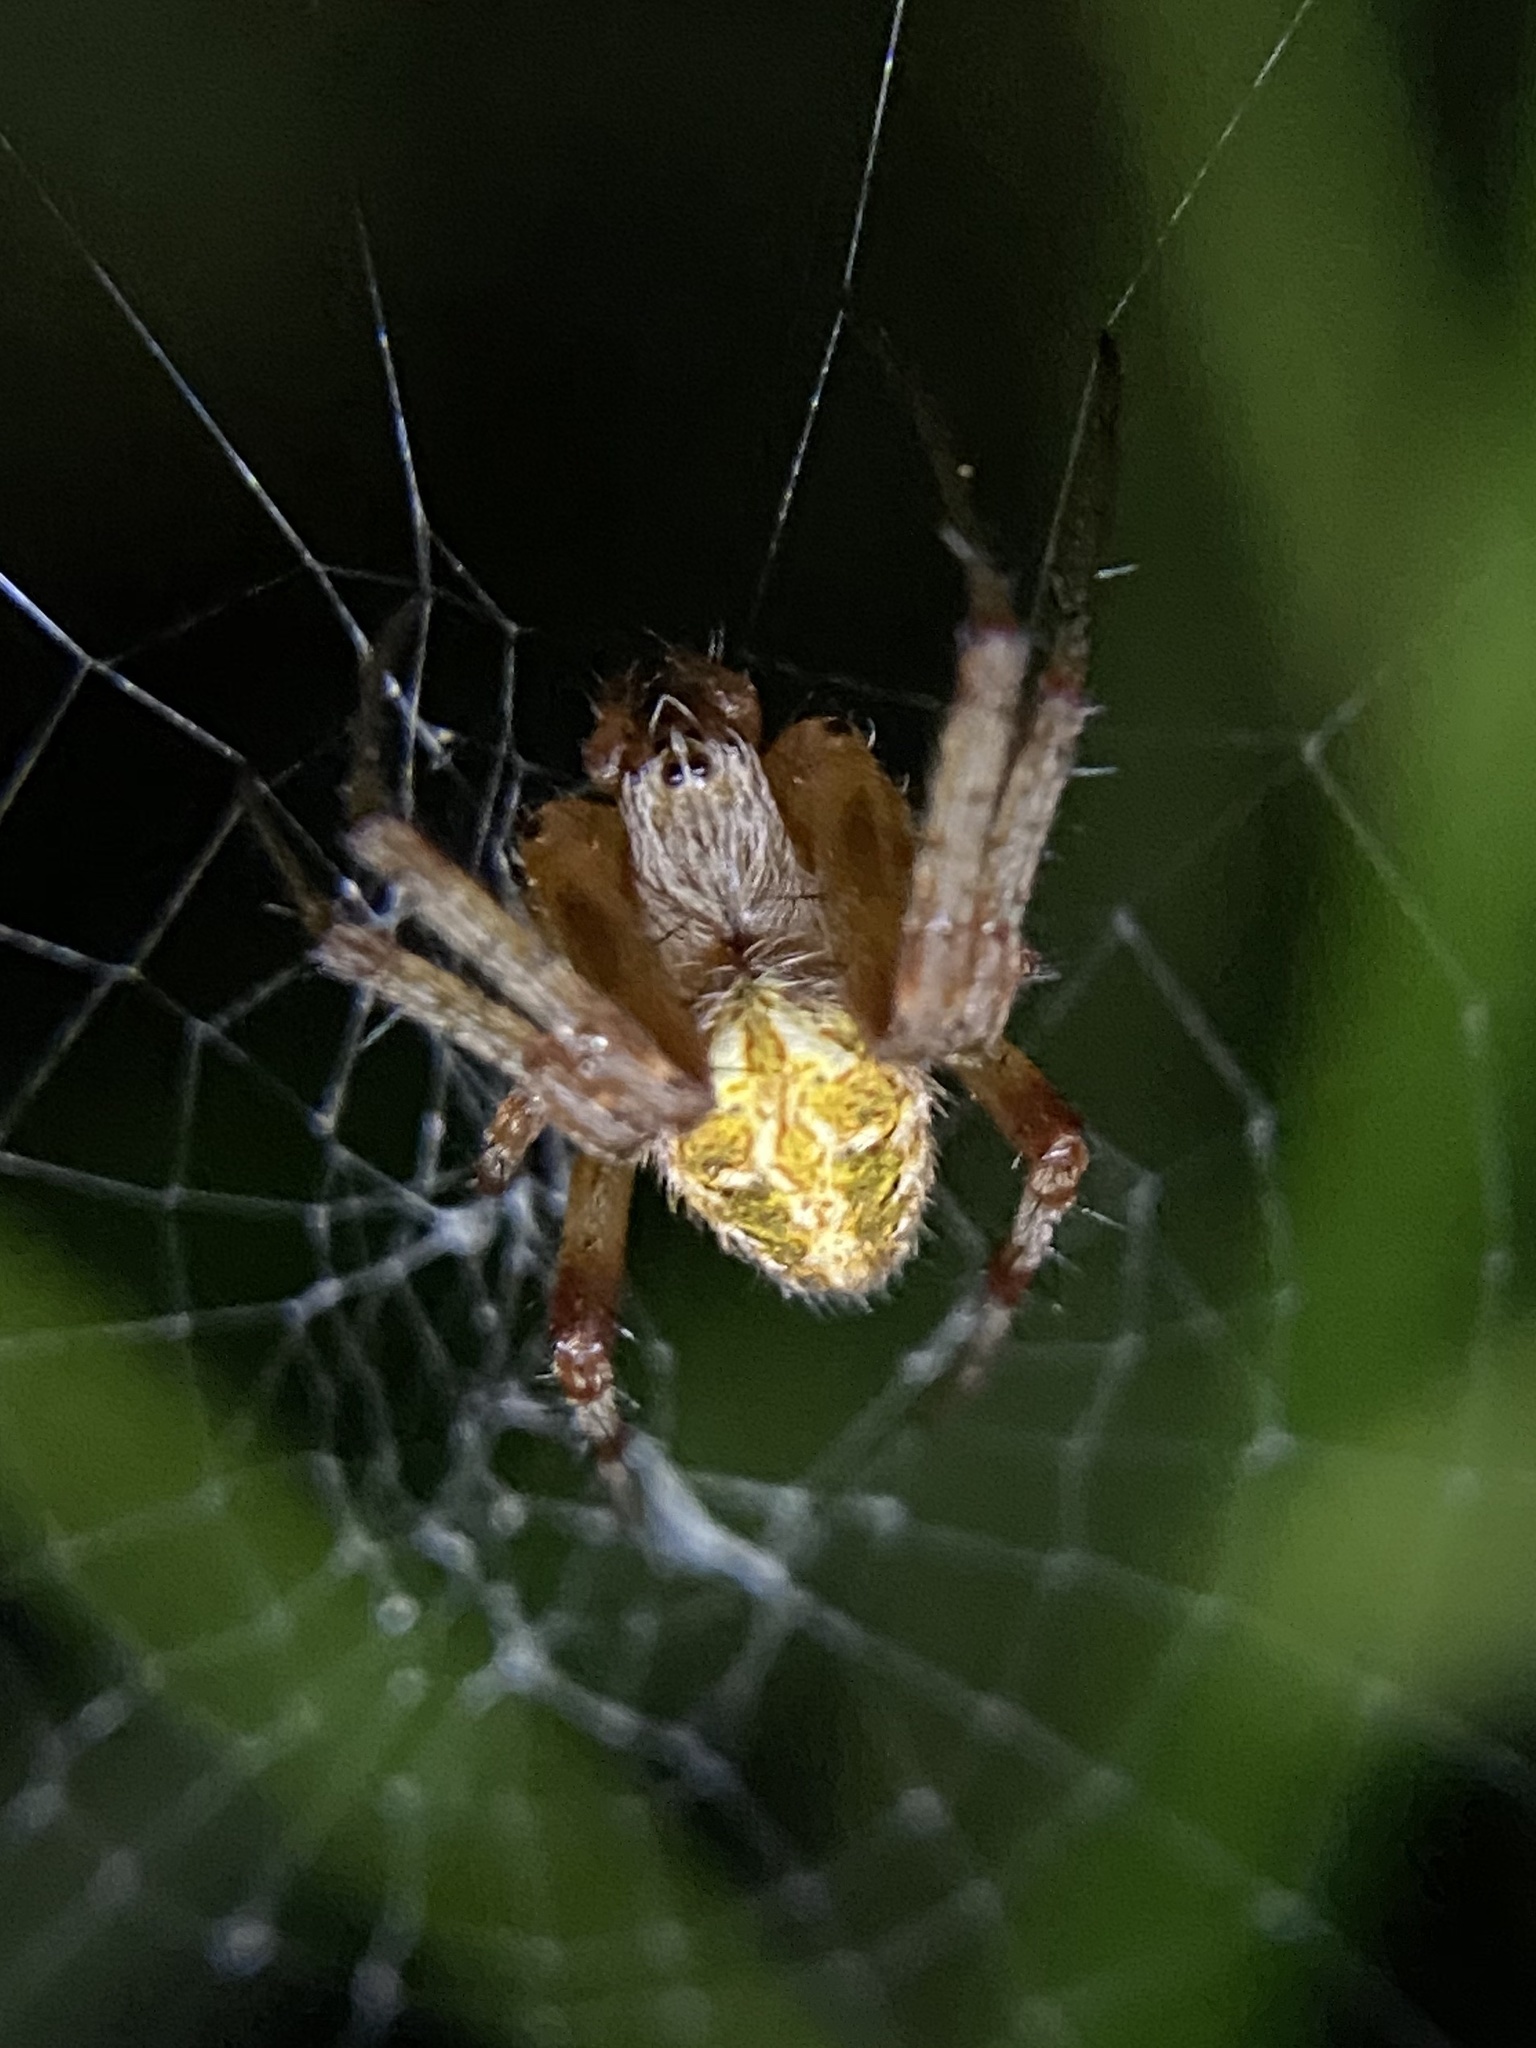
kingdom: Animalia
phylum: Arthropoda
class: Arachnida
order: Araneae
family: Araneidae
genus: Neoscona
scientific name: Neoscona arabesca
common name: Orb weavers
